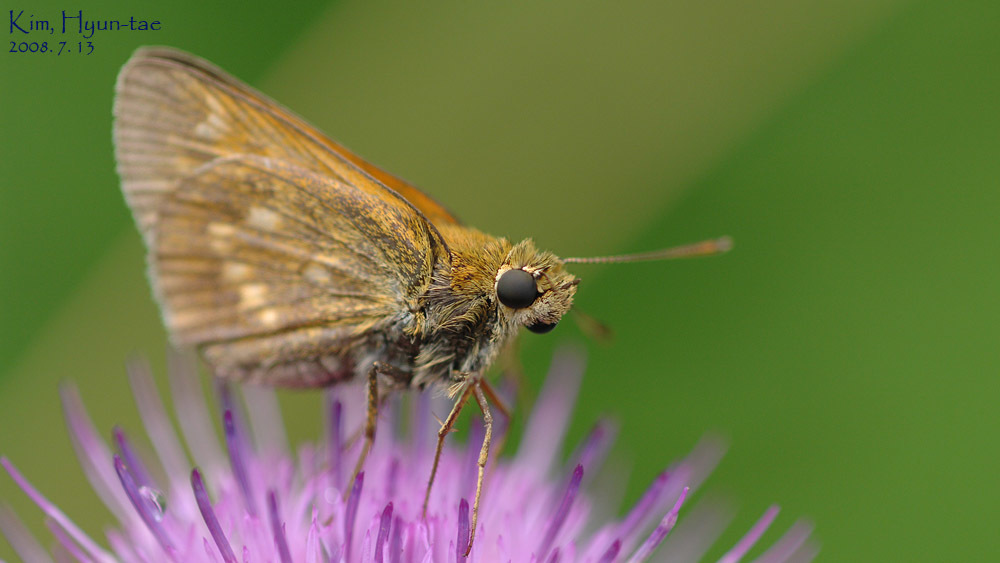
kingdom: Animalia
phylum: Arthropoda
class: Insecta
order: Lepidoptera
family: Hesperiidae
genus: Ochlodes
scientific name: Ochlodes subhyalina
